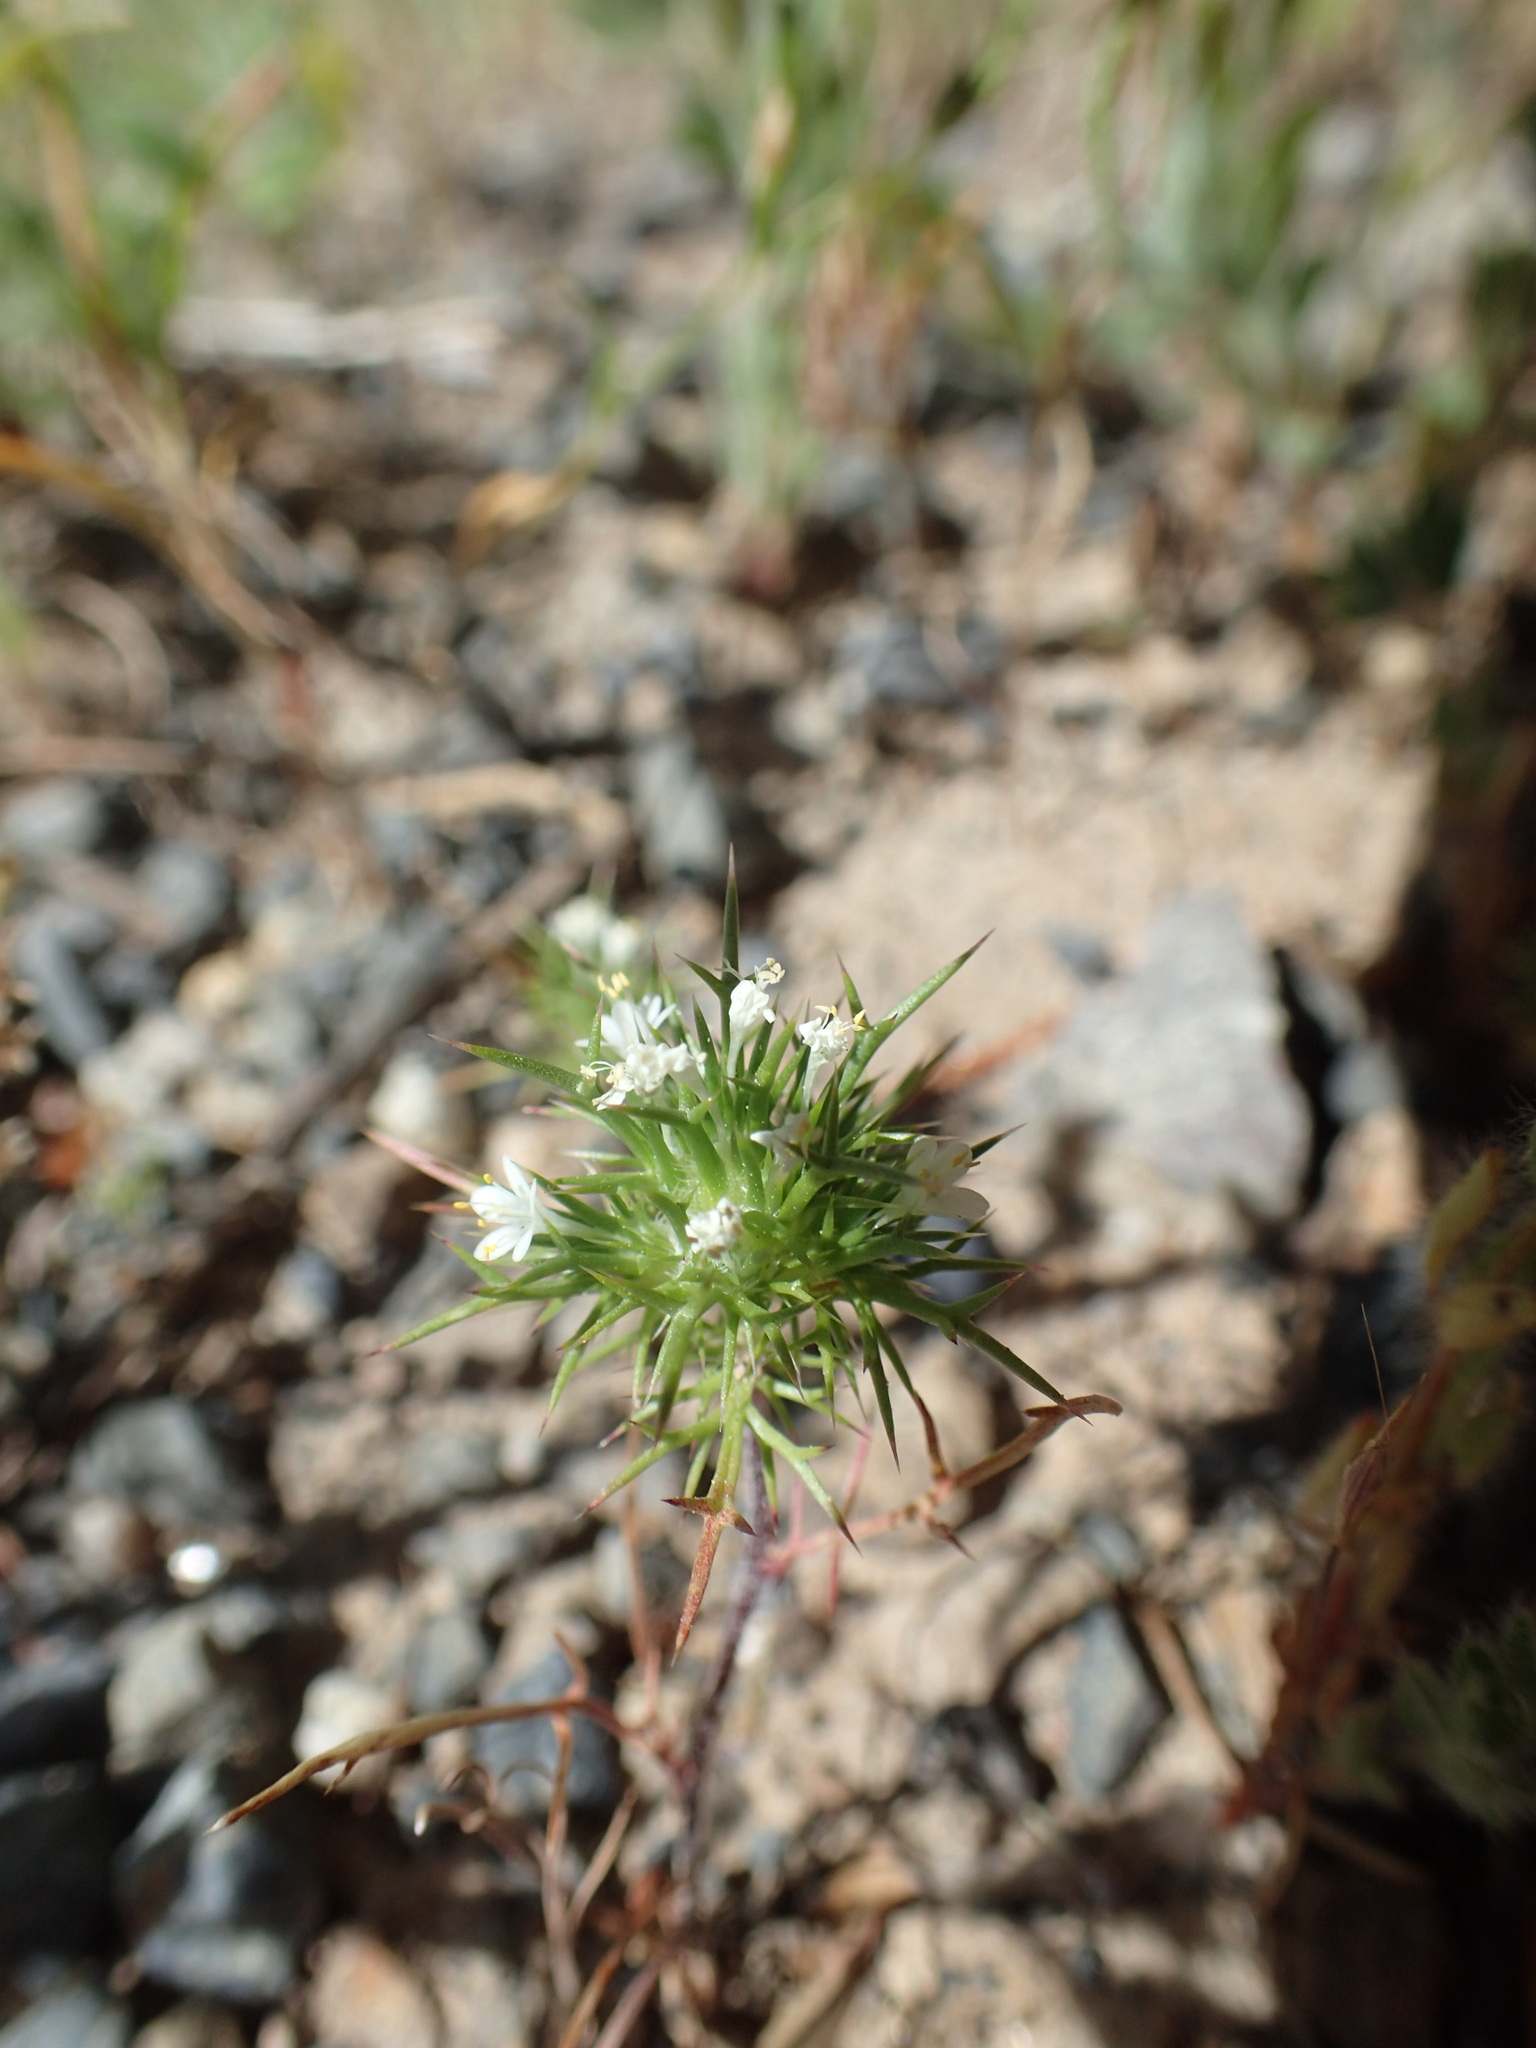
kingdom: Plantae
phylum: Tracheophyta
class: Magnoliopsida
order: Ericales
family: Polemoniaceae
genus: Navarretia
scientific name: Navarretia intertexta
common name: Needle-leaved navarretia
